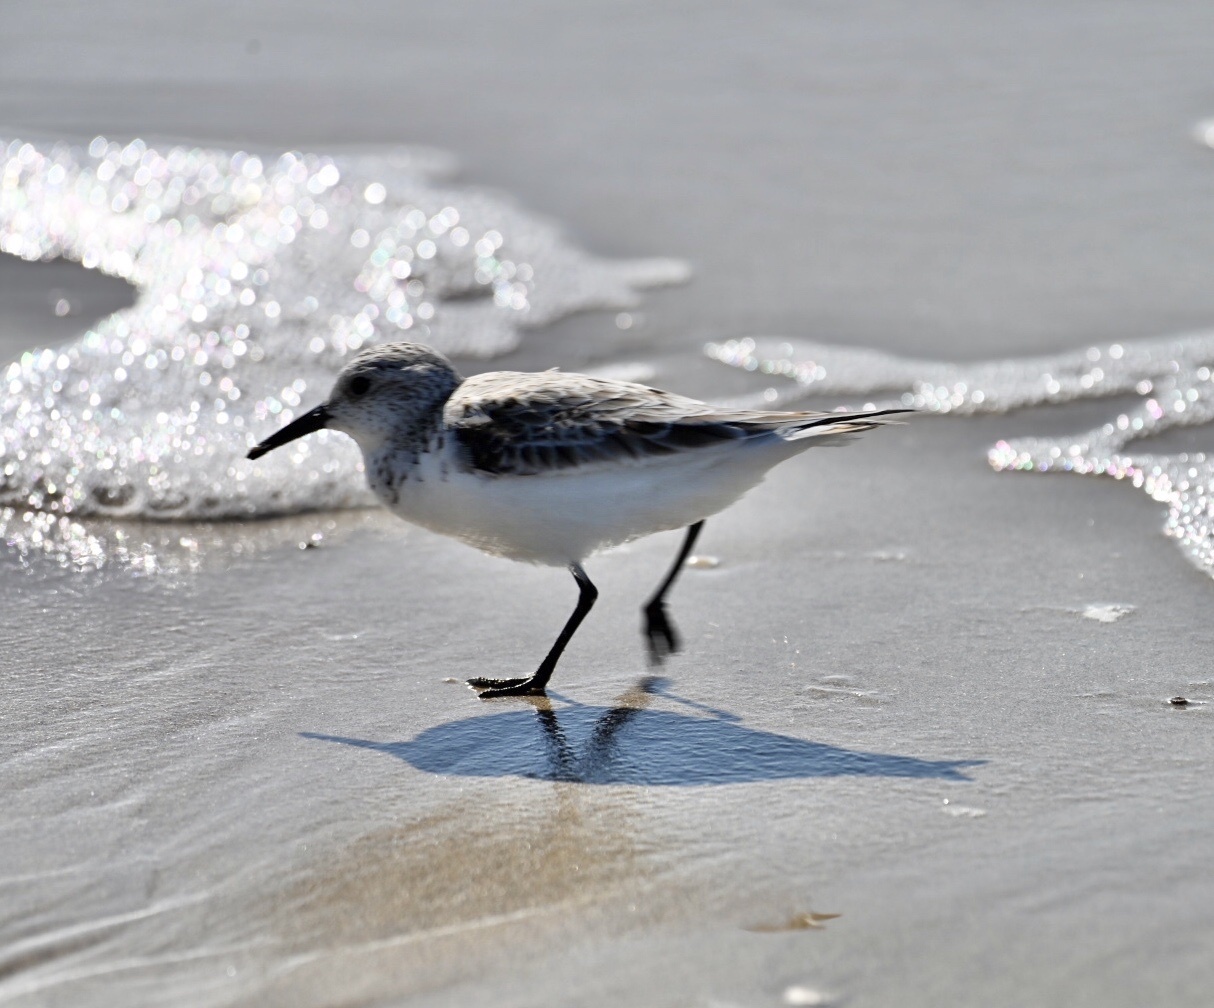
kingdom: Animalia
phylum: Chordata
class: Aves
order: Charadriiformes
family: Scolopacidae
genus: Calidris
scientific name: Calidris alba
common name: Sanderling
